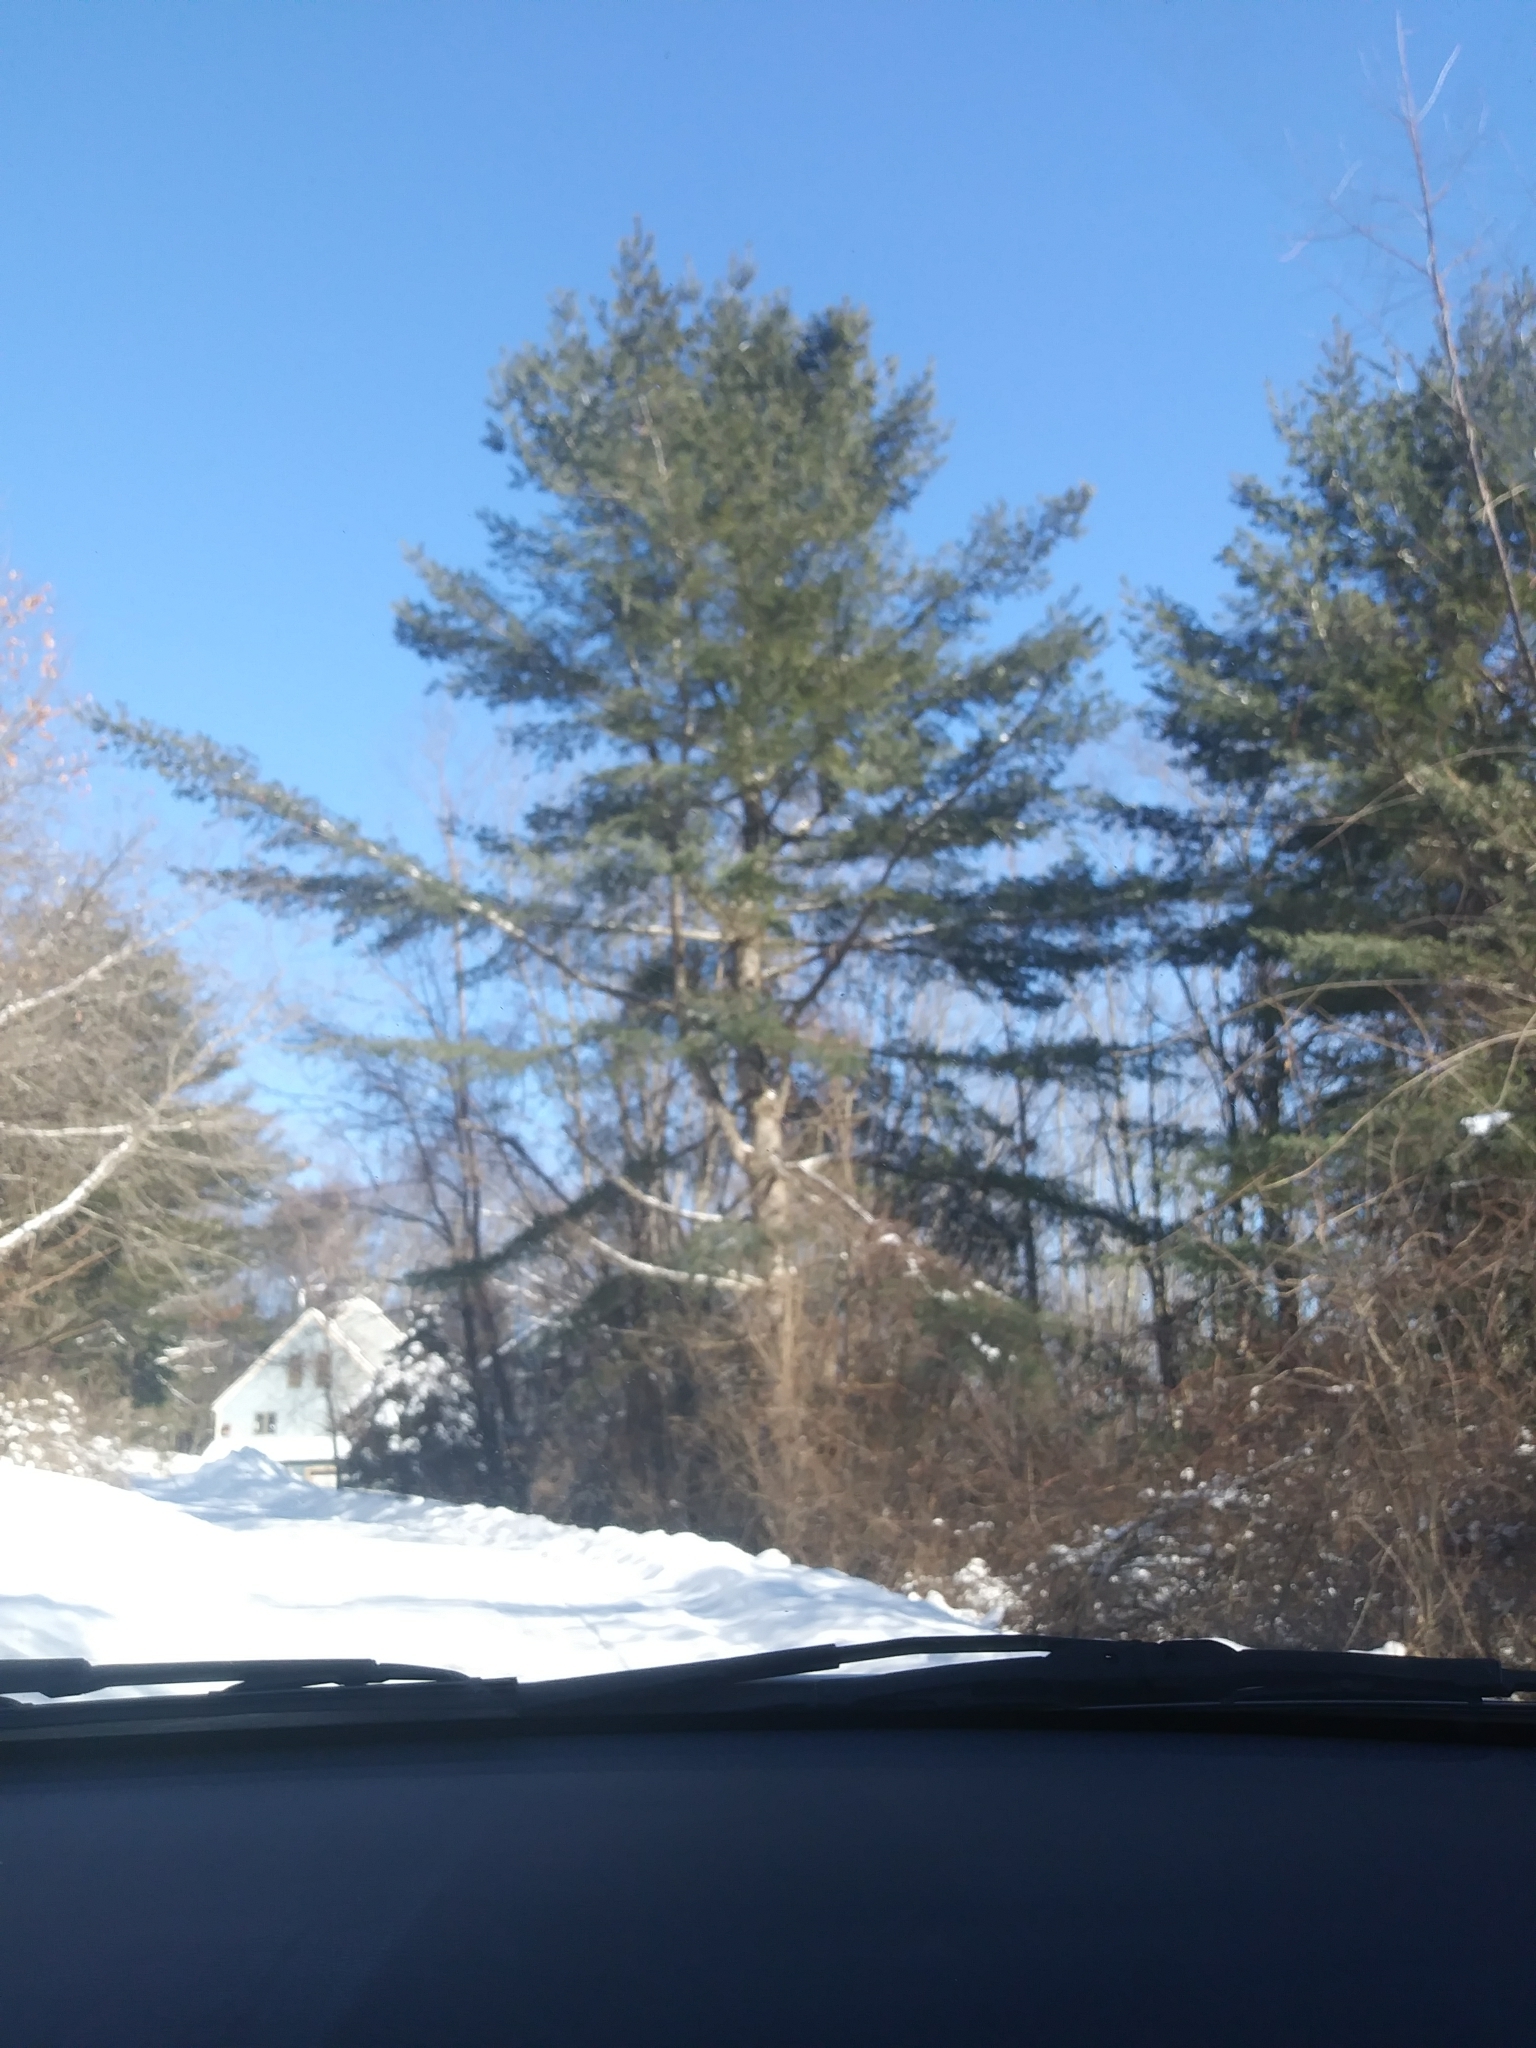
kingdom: Plantae
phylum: Tracheophyta
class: Pinopsida
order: Pinales
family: Pinaceae
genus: Pinus
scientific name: Pinus strobus
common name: Weymouth pine
